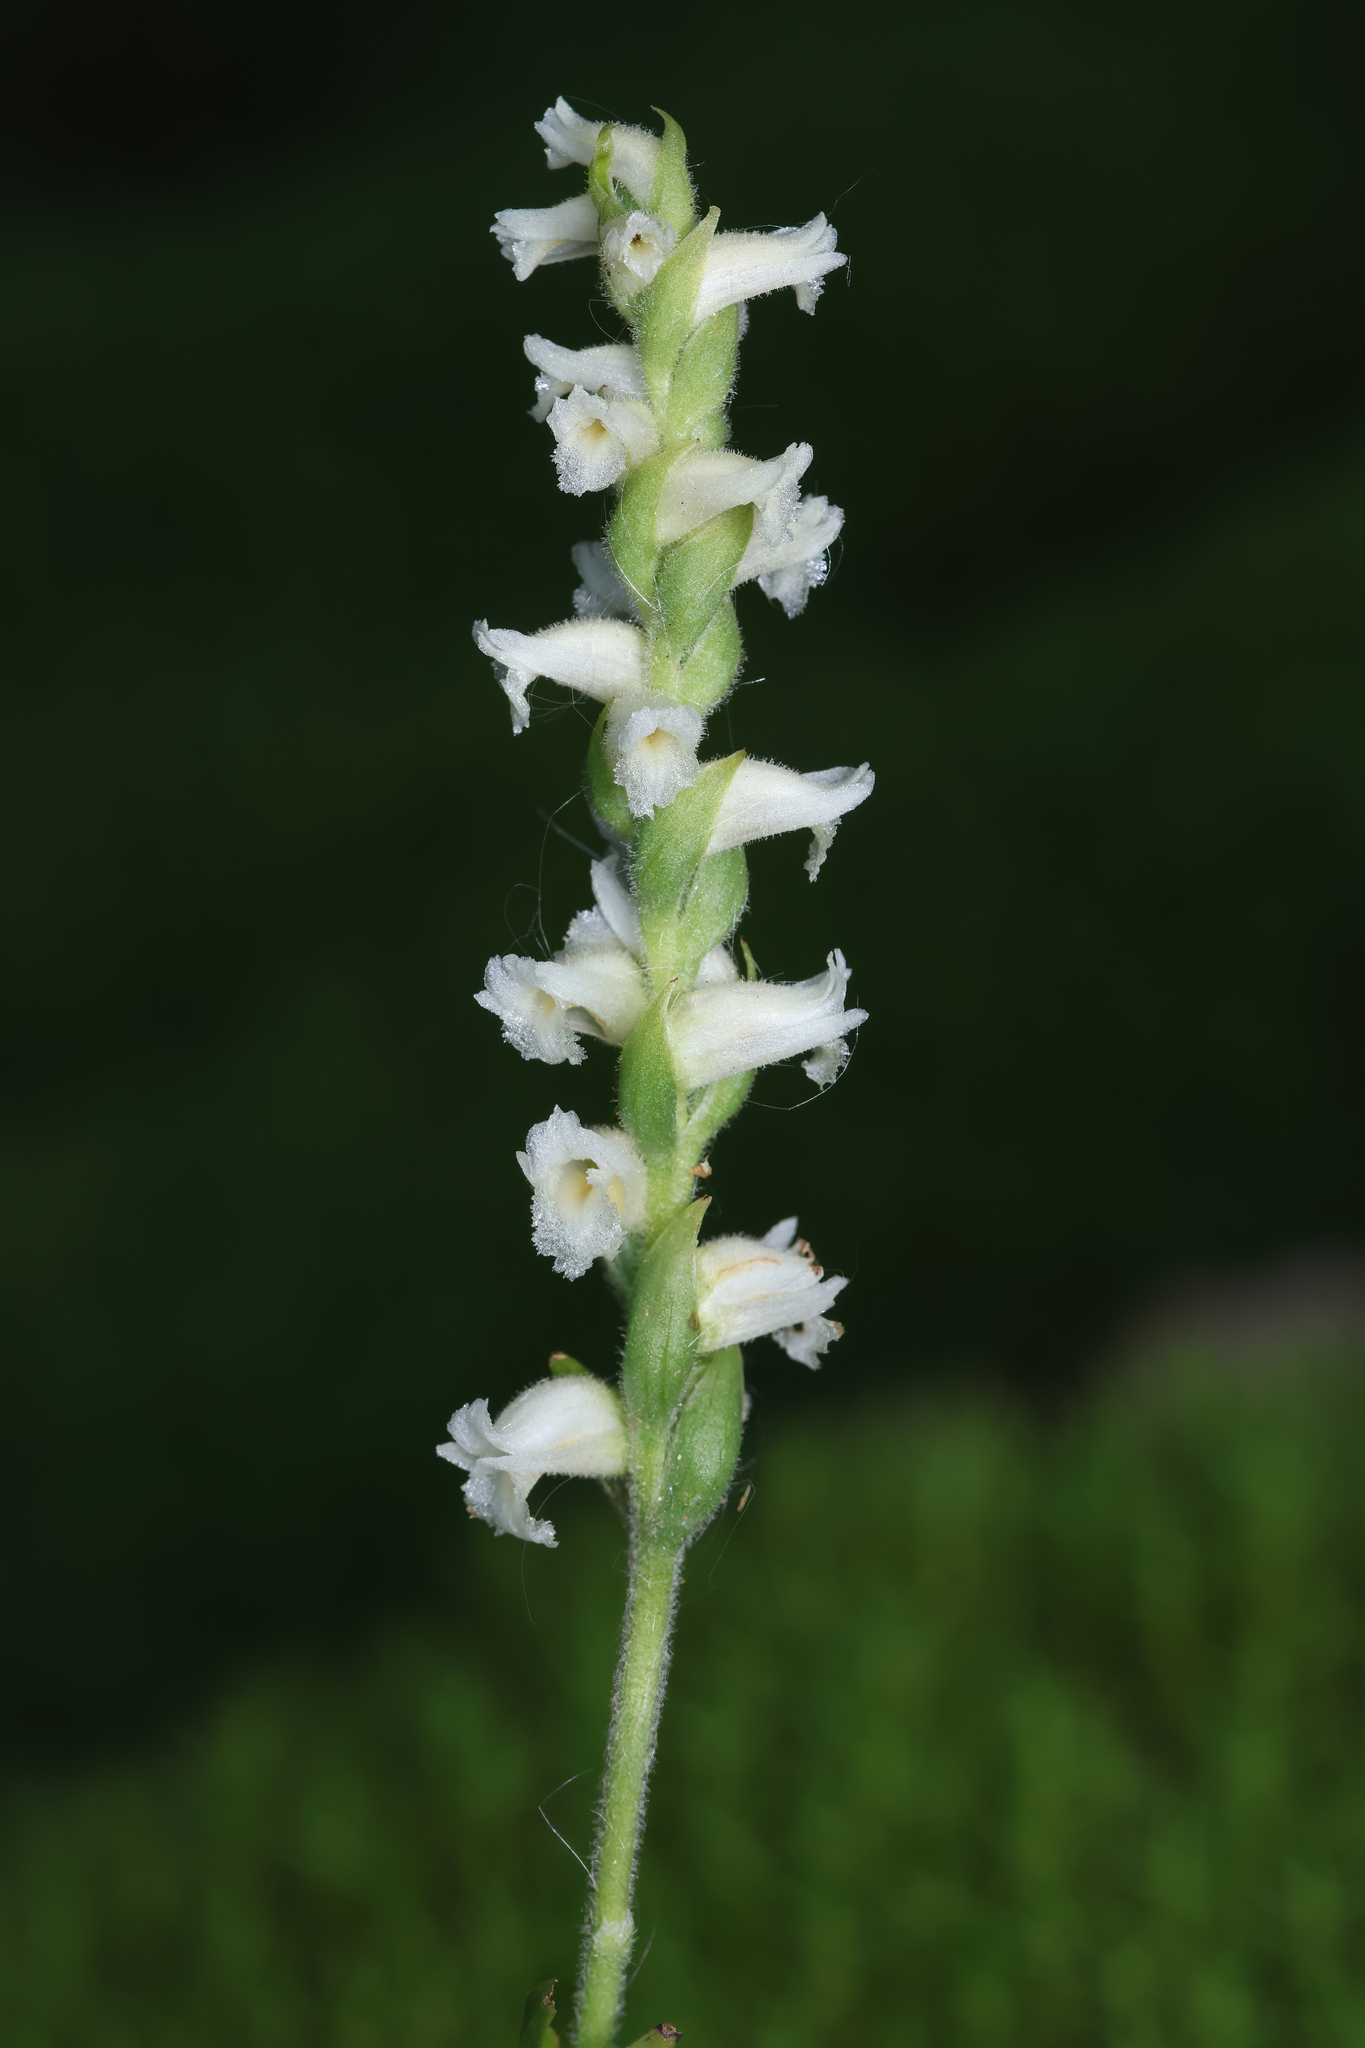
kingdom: Plantae
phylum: Tracheophyta
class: Liliopsida
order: Asparagales
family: Orchidaceae
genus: Spiranthes
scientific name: Spiranthes ochroleuca
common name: Yellow ladies'-tresses
